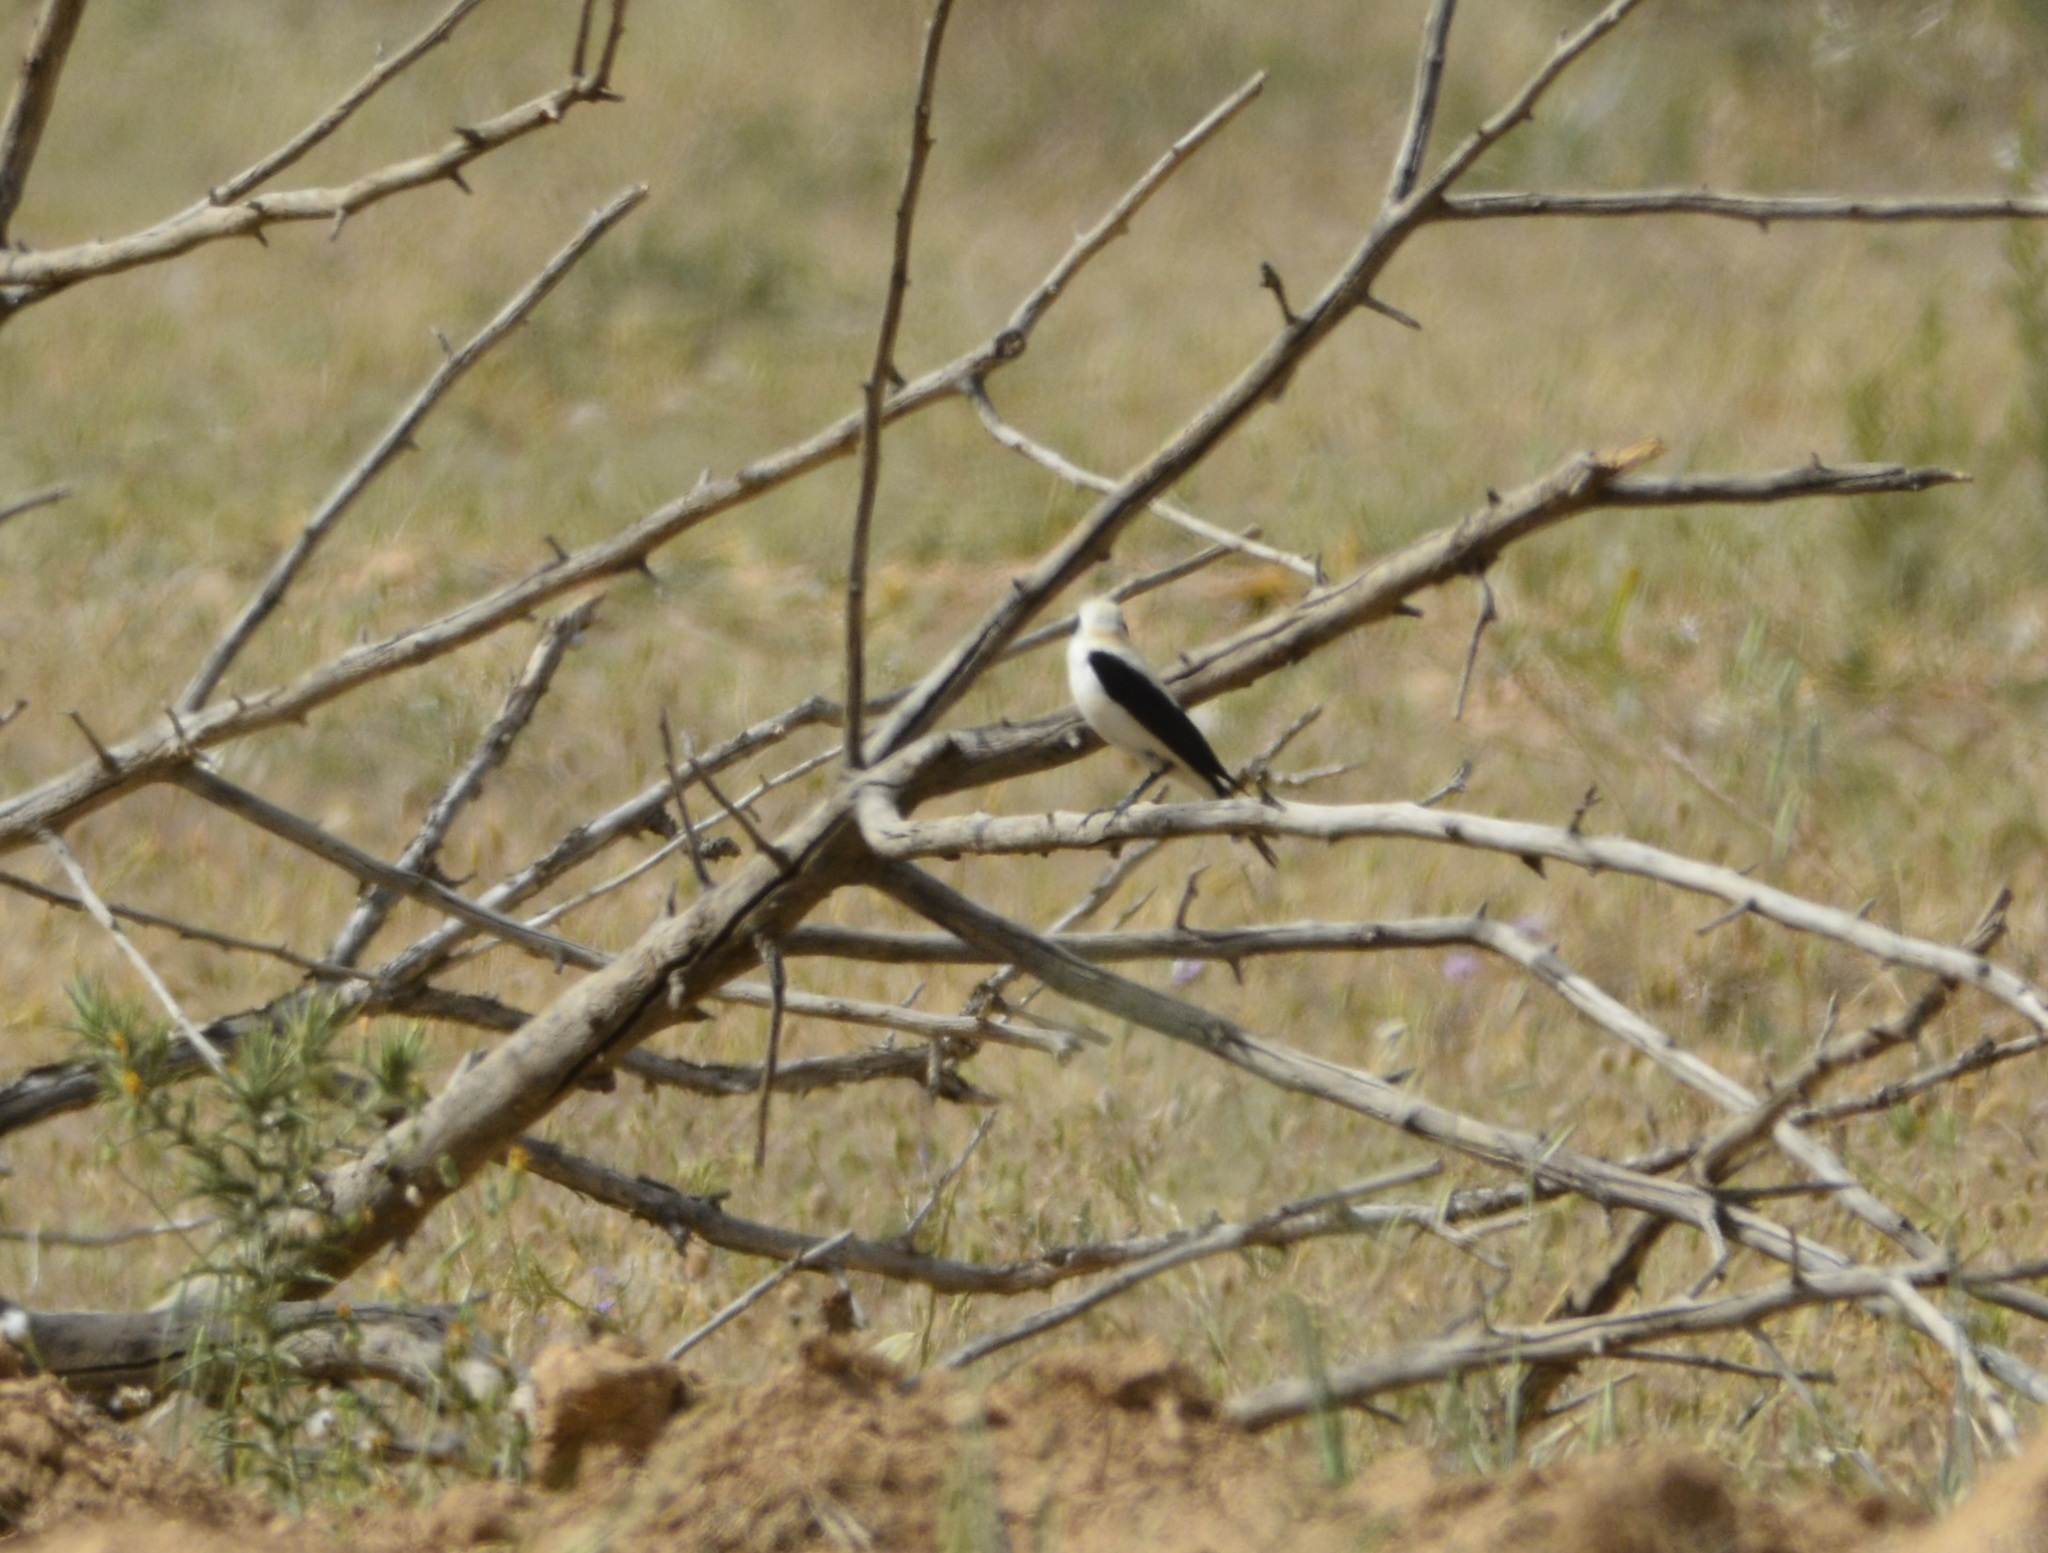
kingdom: Animalia
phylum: Chordata
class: Aves
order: Passeriformes
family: Muscicapidae
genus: Oenanthe
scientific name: Oenanthe hispanica
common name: Black-eared wheatear
